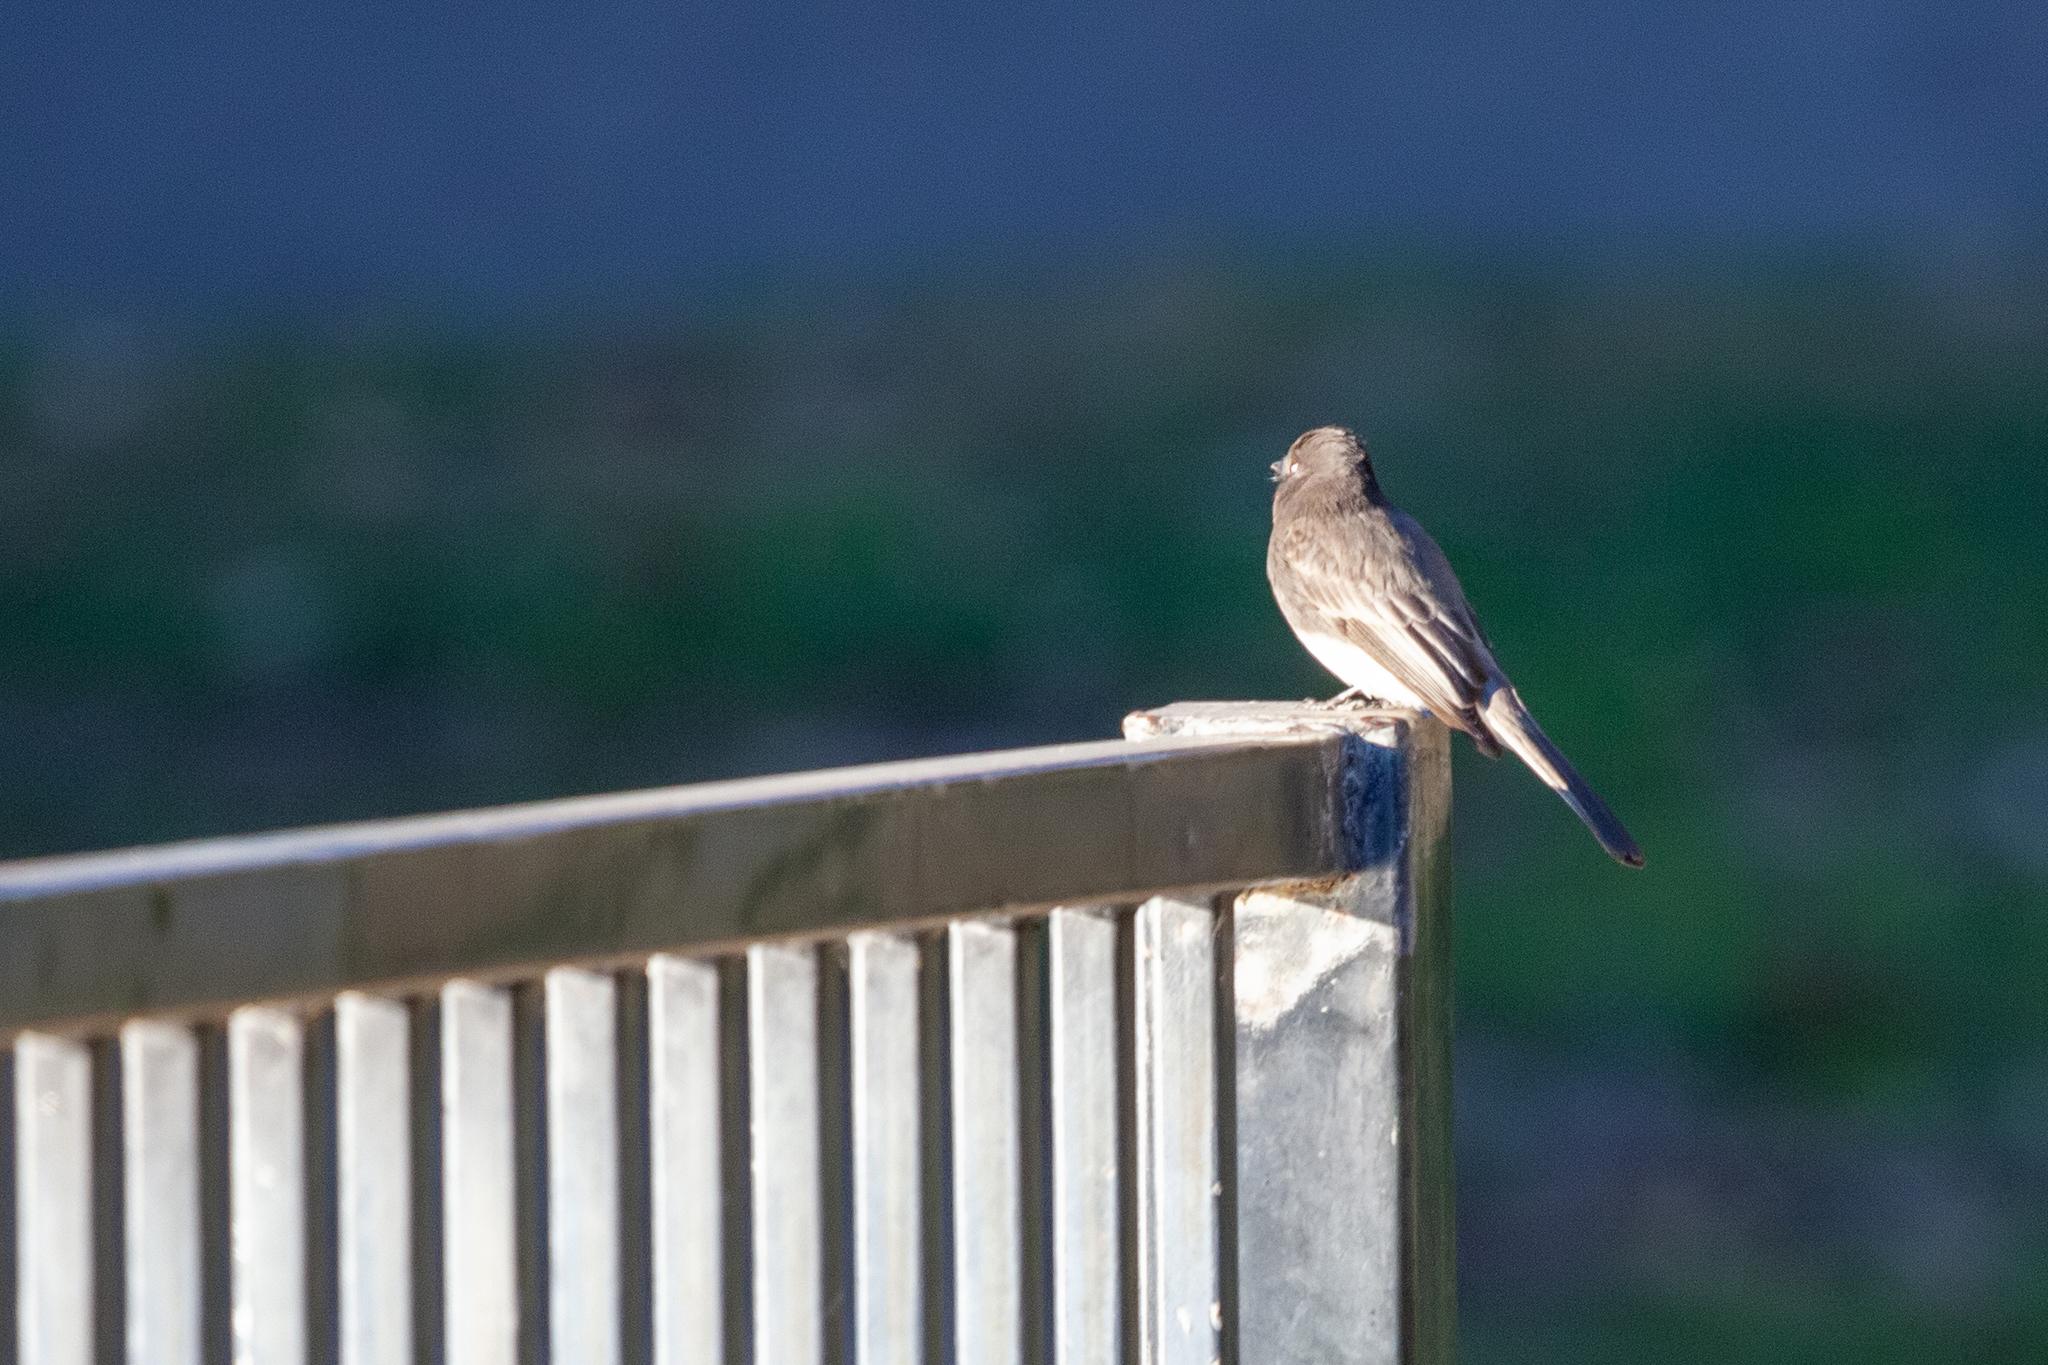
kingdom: Animalia
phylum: Chordata
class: Aves
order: Passeriformes
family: Tyrannidae
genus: Sayornis
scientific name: Sayornis nigricans
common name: Black phoebe
